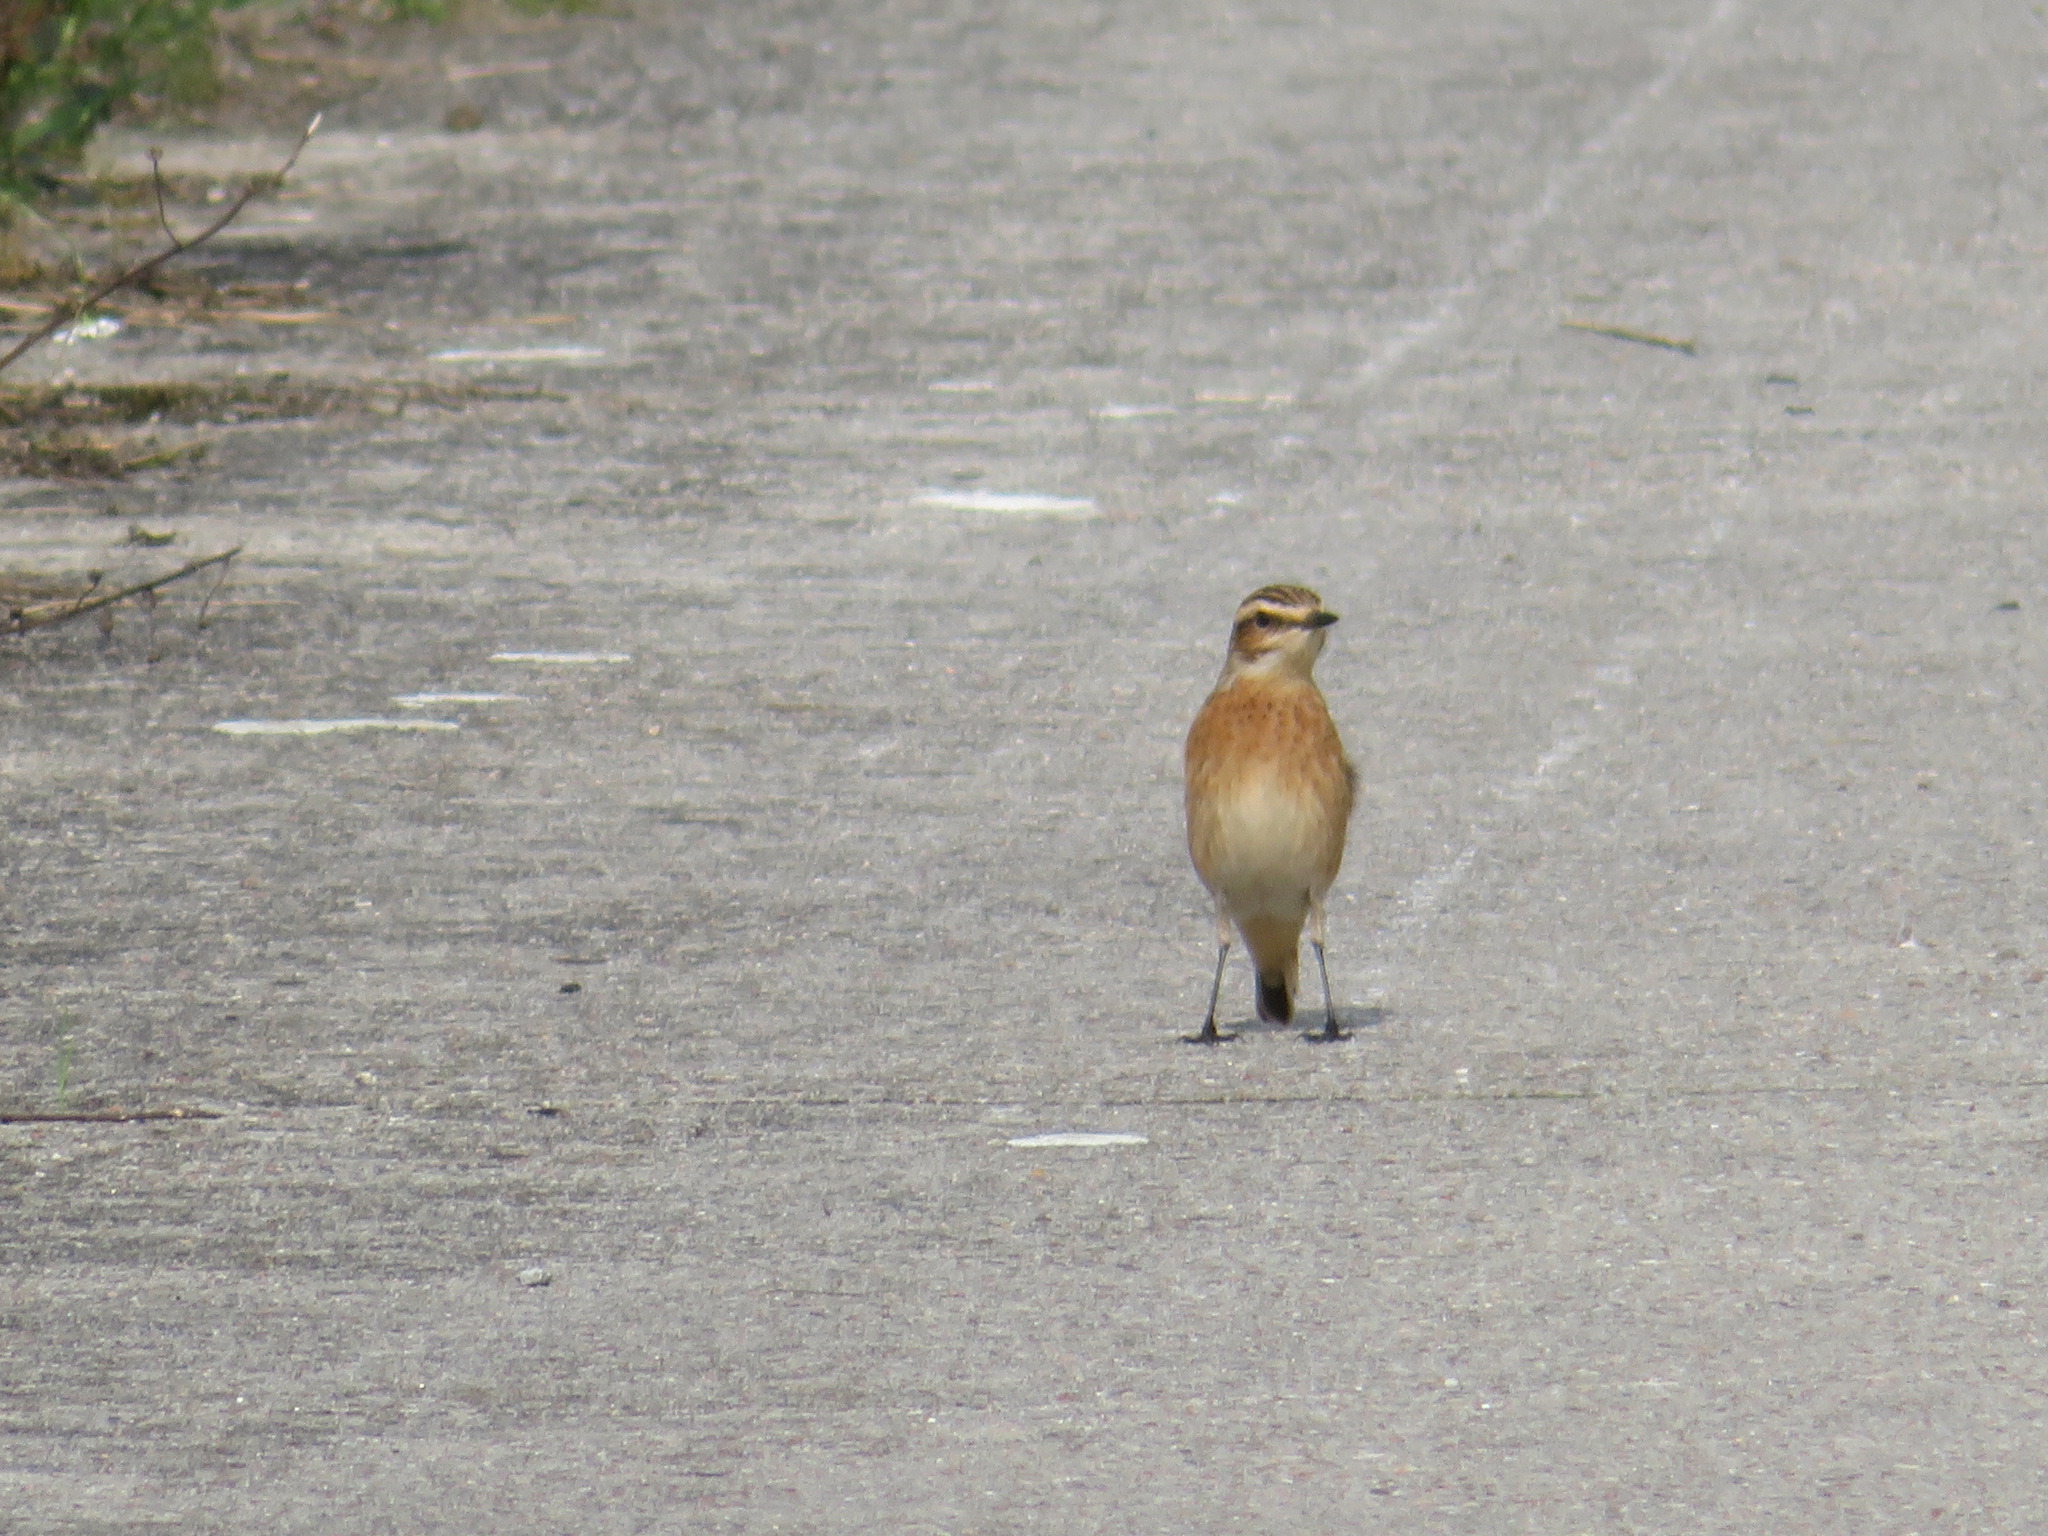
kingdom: Animalia
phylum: Chordata
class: Aves
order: Passeriformes
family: Muscicapidae
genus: Saxicola
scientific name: Saxicola rubetra
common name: Whinchat
